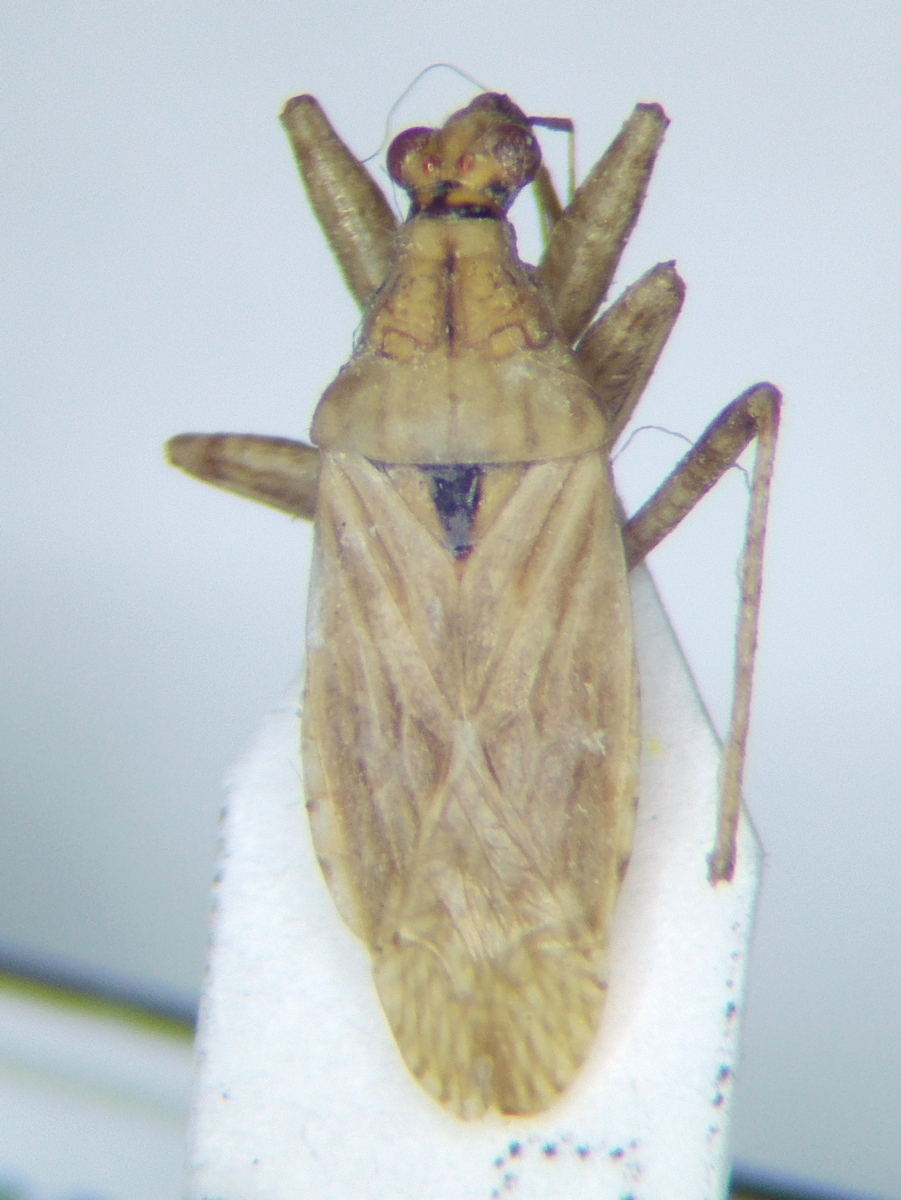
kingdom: Animalia
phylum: Arthropoda
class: Insecta
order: Hemiptera
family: Nabidae
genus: Nabis
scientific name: Nabis sareptanus
